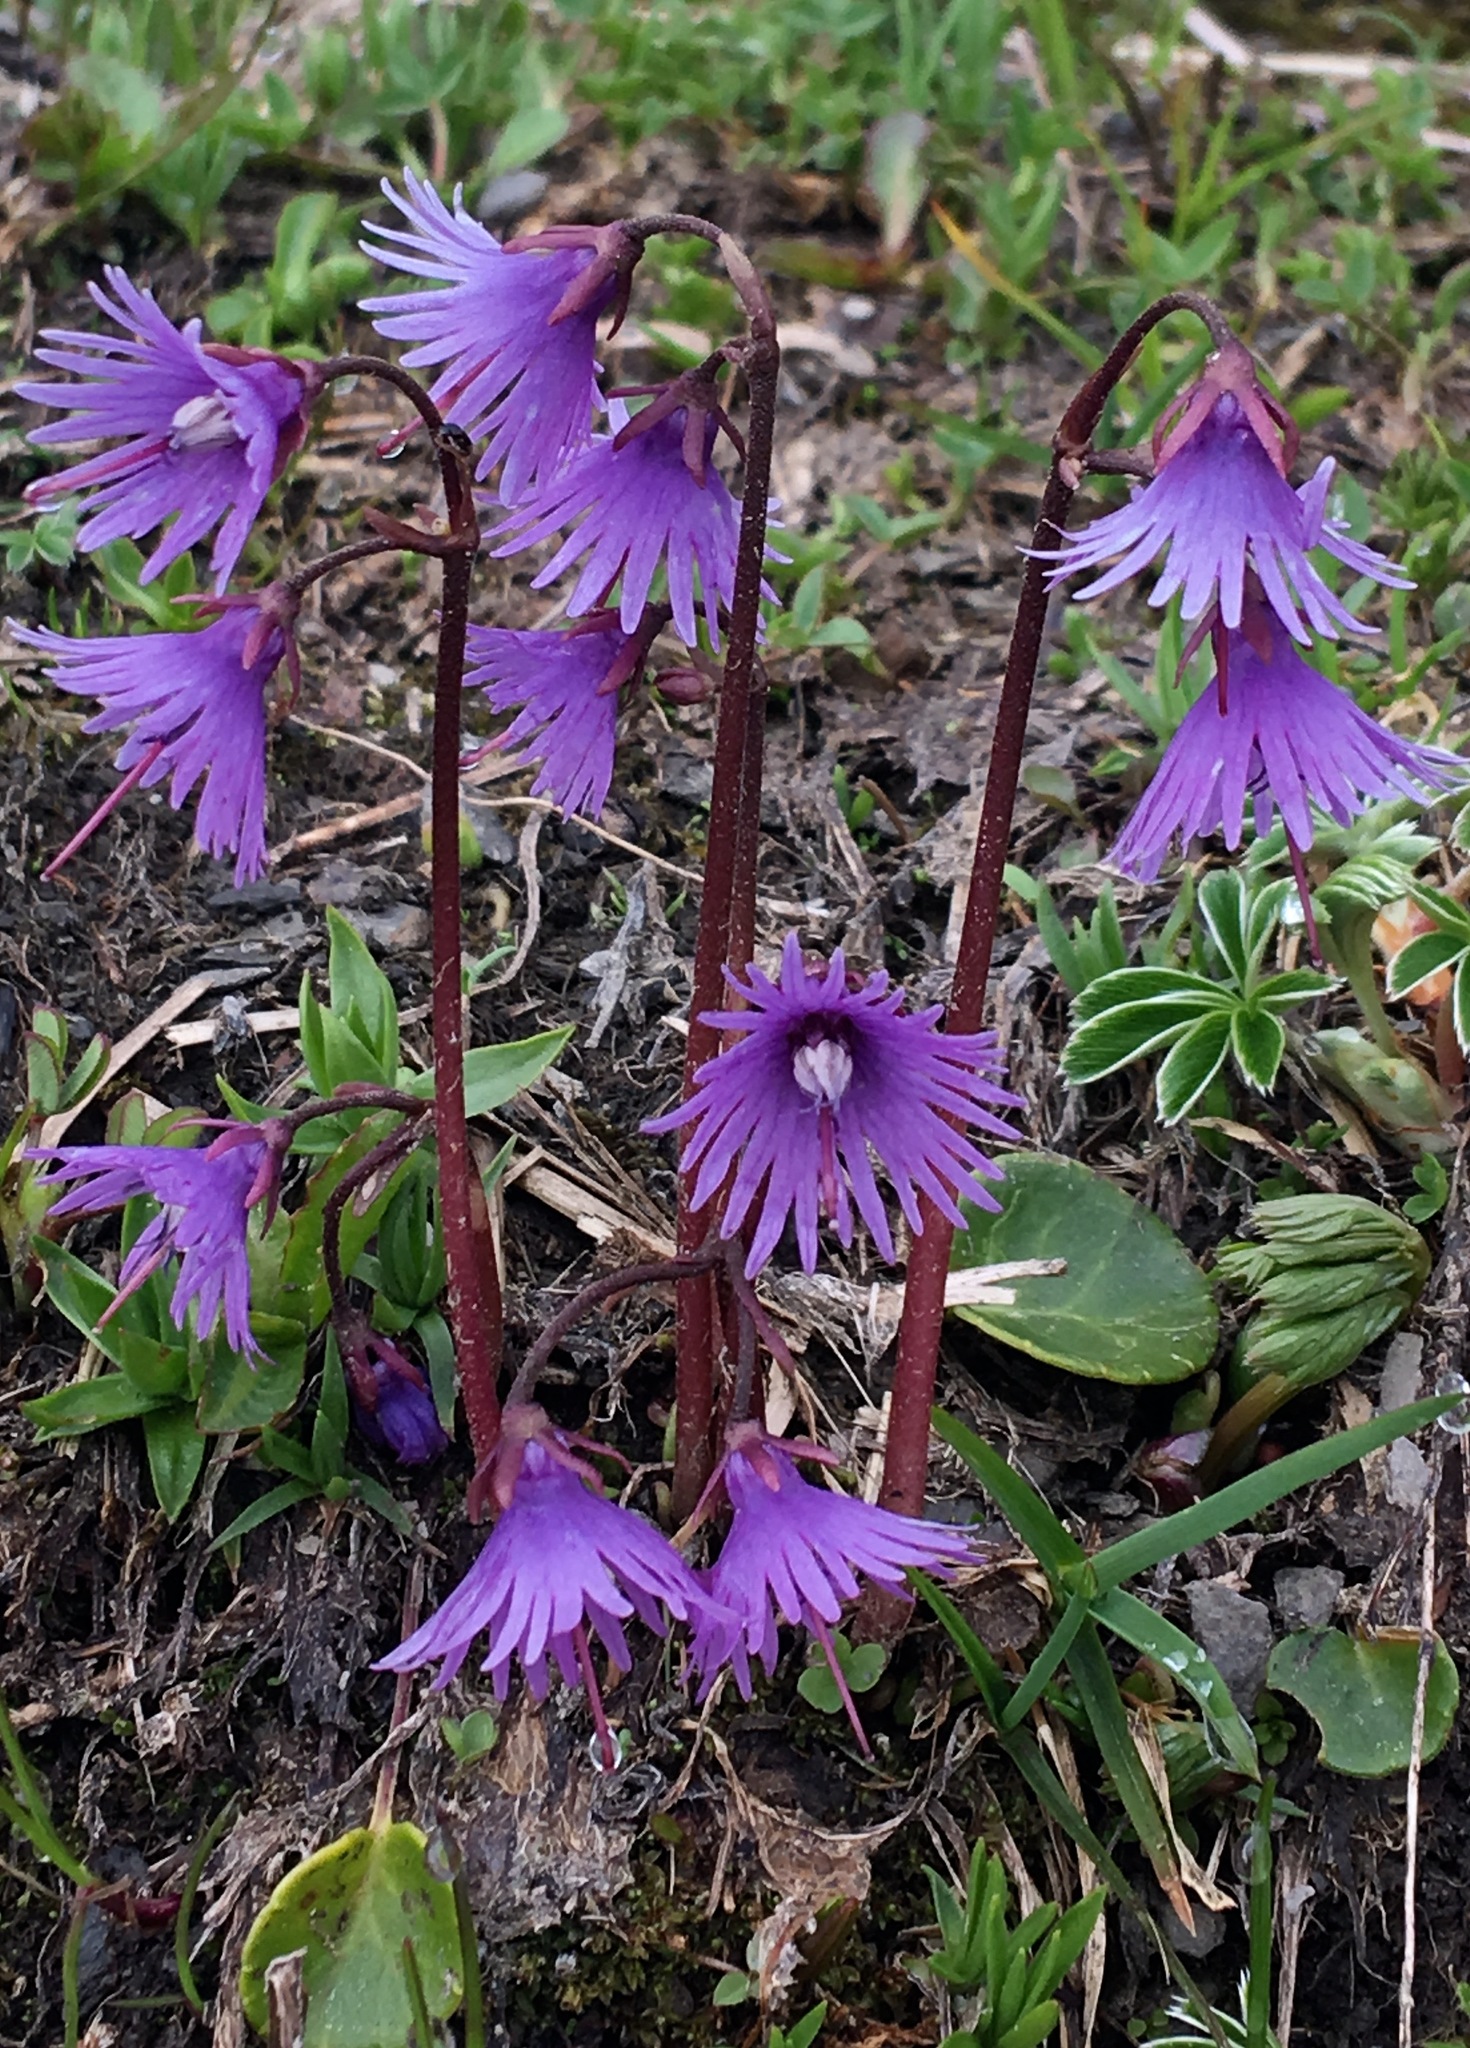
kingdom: Plantae
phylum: Tracheophyta
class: Magnoliopsida
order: Ericales
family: Primulaceae
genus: Soldanella
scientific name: Soldanella alpina
